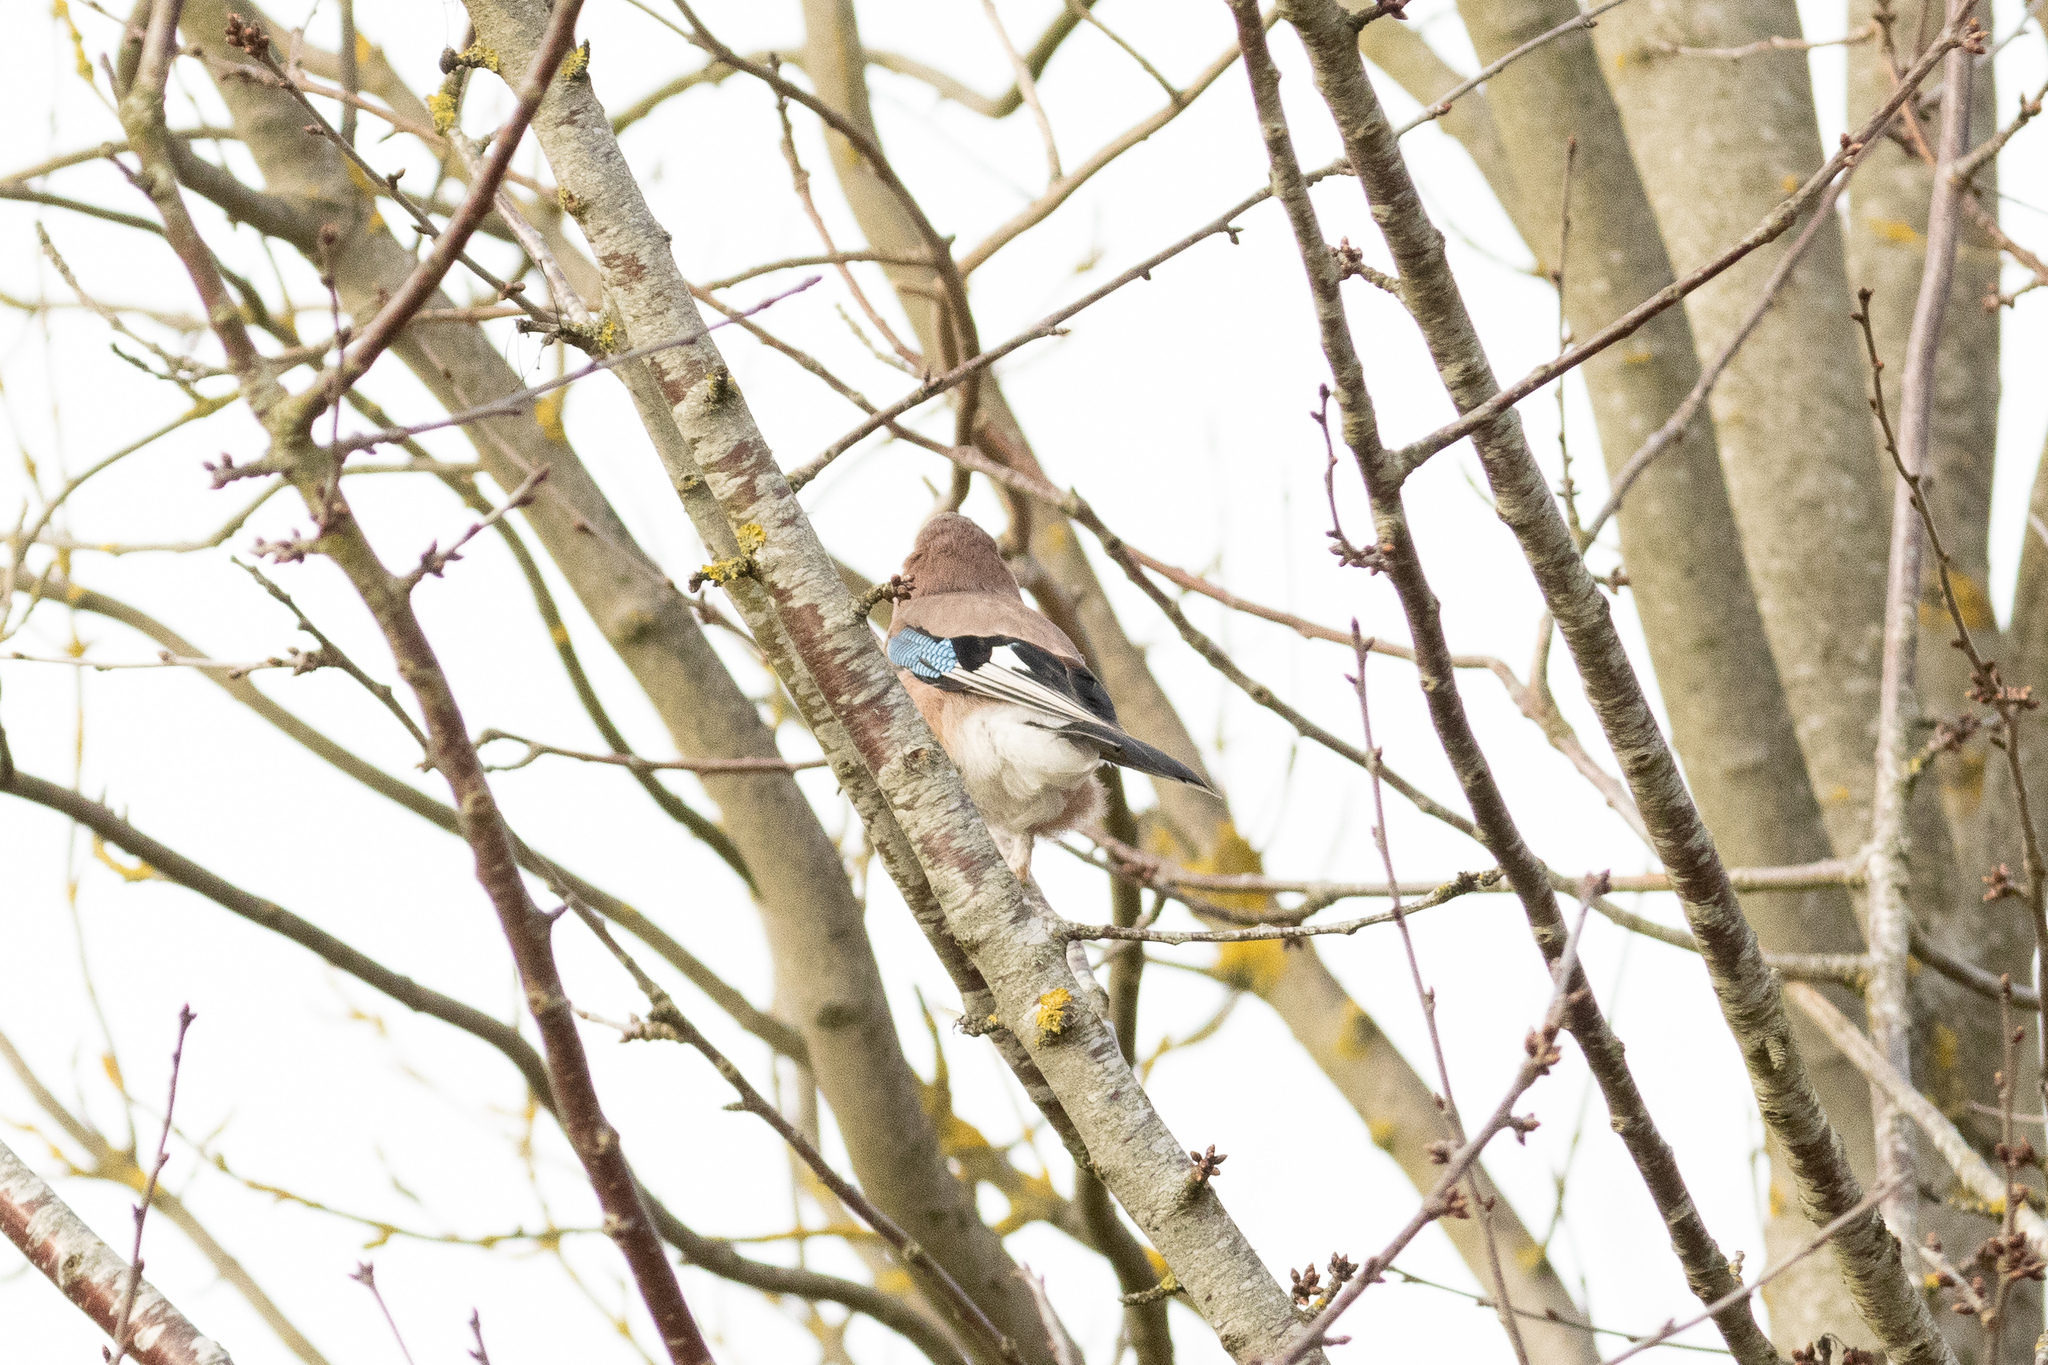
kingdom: Animalia
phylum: Chordata
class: Aves
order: Passeriformes
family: Corvidae
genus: Garrulus
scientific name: Garrulus glandarius
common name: Eurasian jay
